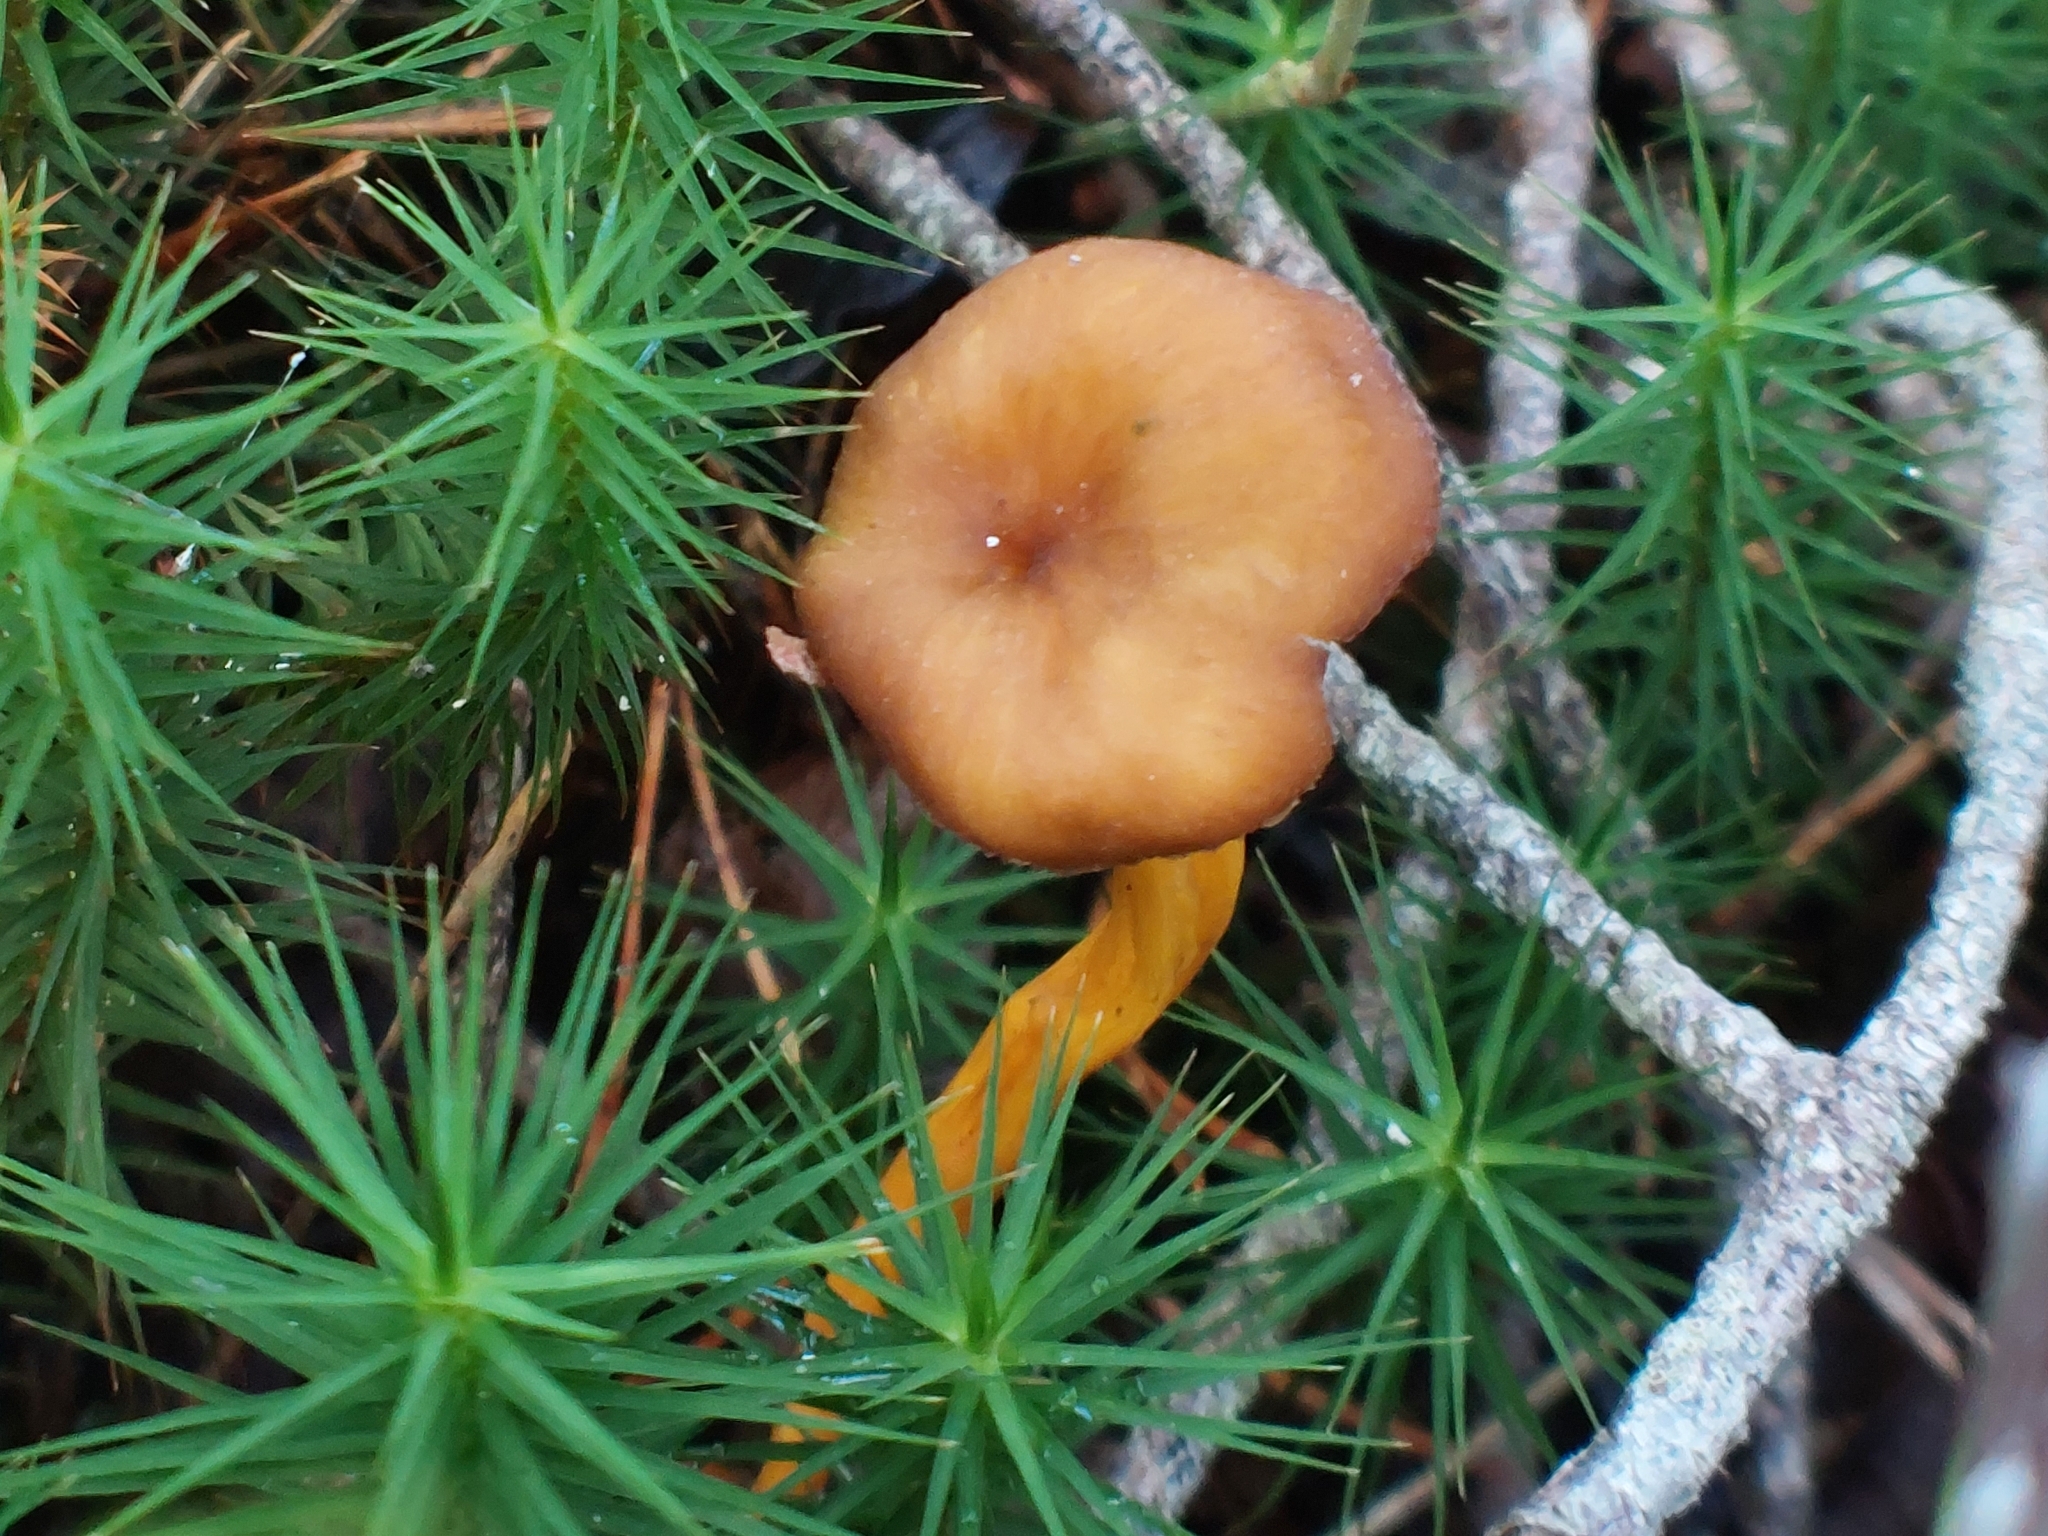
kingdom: Fungi
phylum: Basidiomycota
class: Agaricomycetes
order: Cantharellales
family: Hydnaceae
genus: Craterellus
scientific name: Craterellus tubaeformis
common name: Yellowfoot
